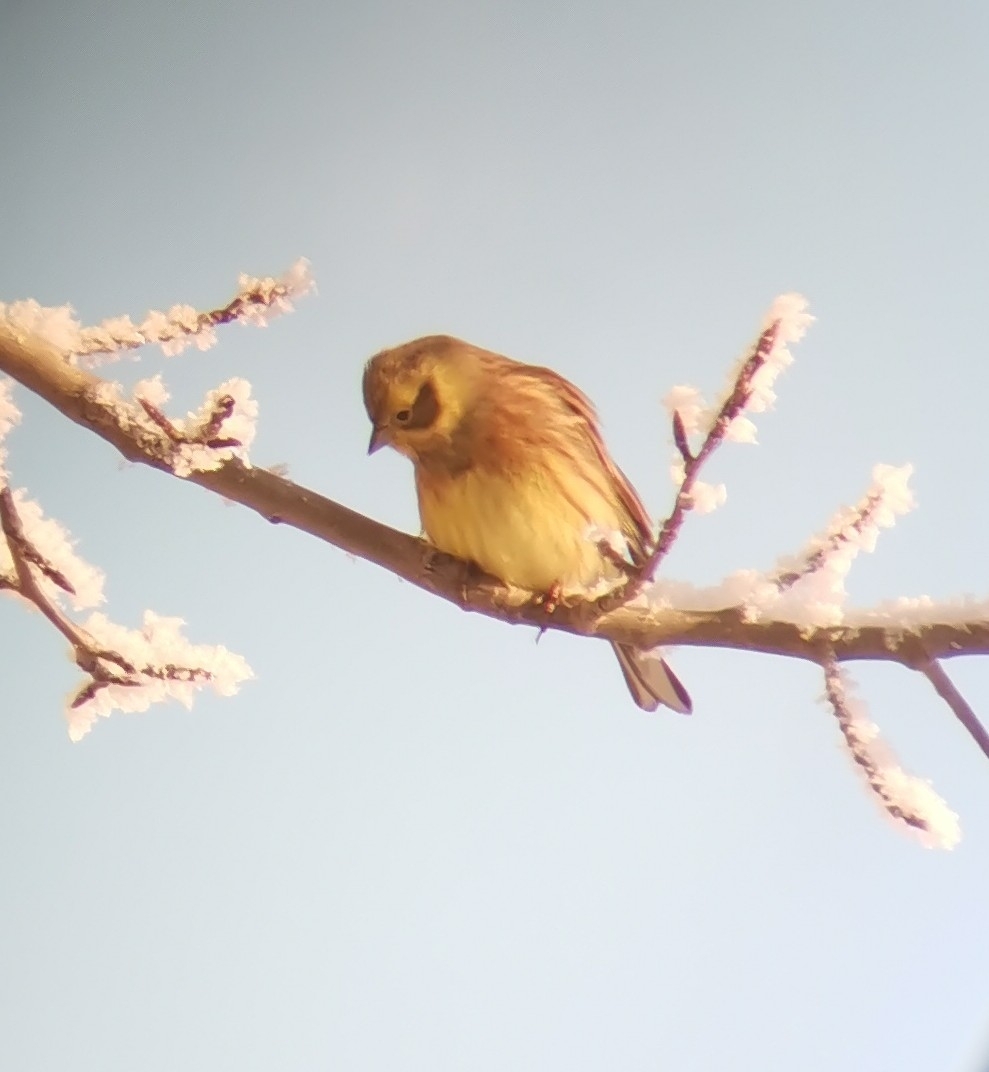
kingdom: Animalia
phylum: Chordata
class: Aves
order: Passeriformes
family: Emberizidae
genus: Emberiza
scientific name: Emberiza citrinella
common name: Yellowhammer
